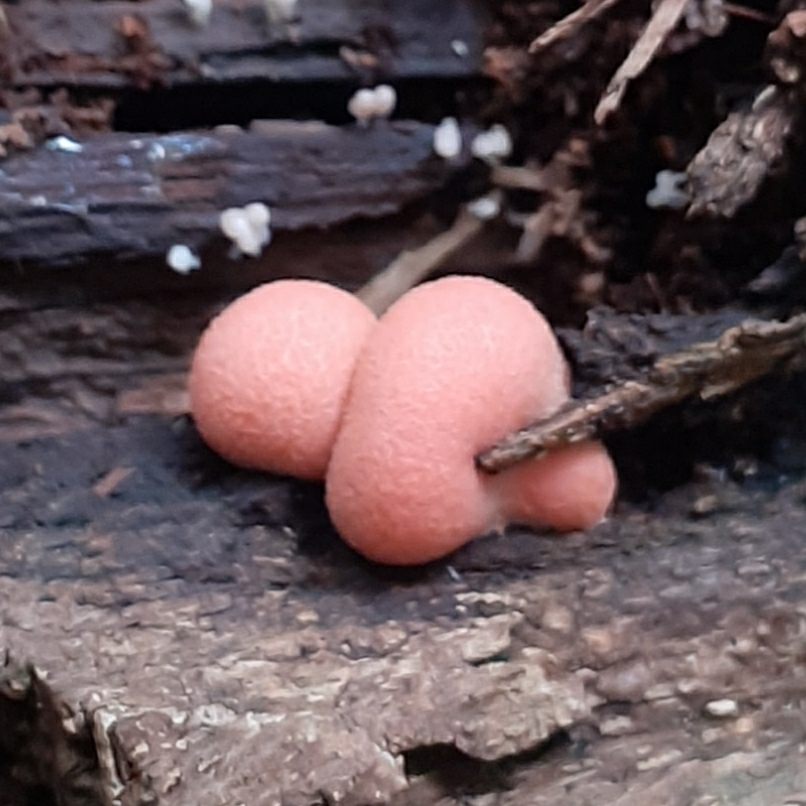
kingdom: Protozoa
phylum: Mycetozoa
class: Myxomycetes
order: Cribrariales
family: Tubiferaceae
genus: Lycogala
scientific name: Lycogala epidendrum
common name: Wolf's milk
